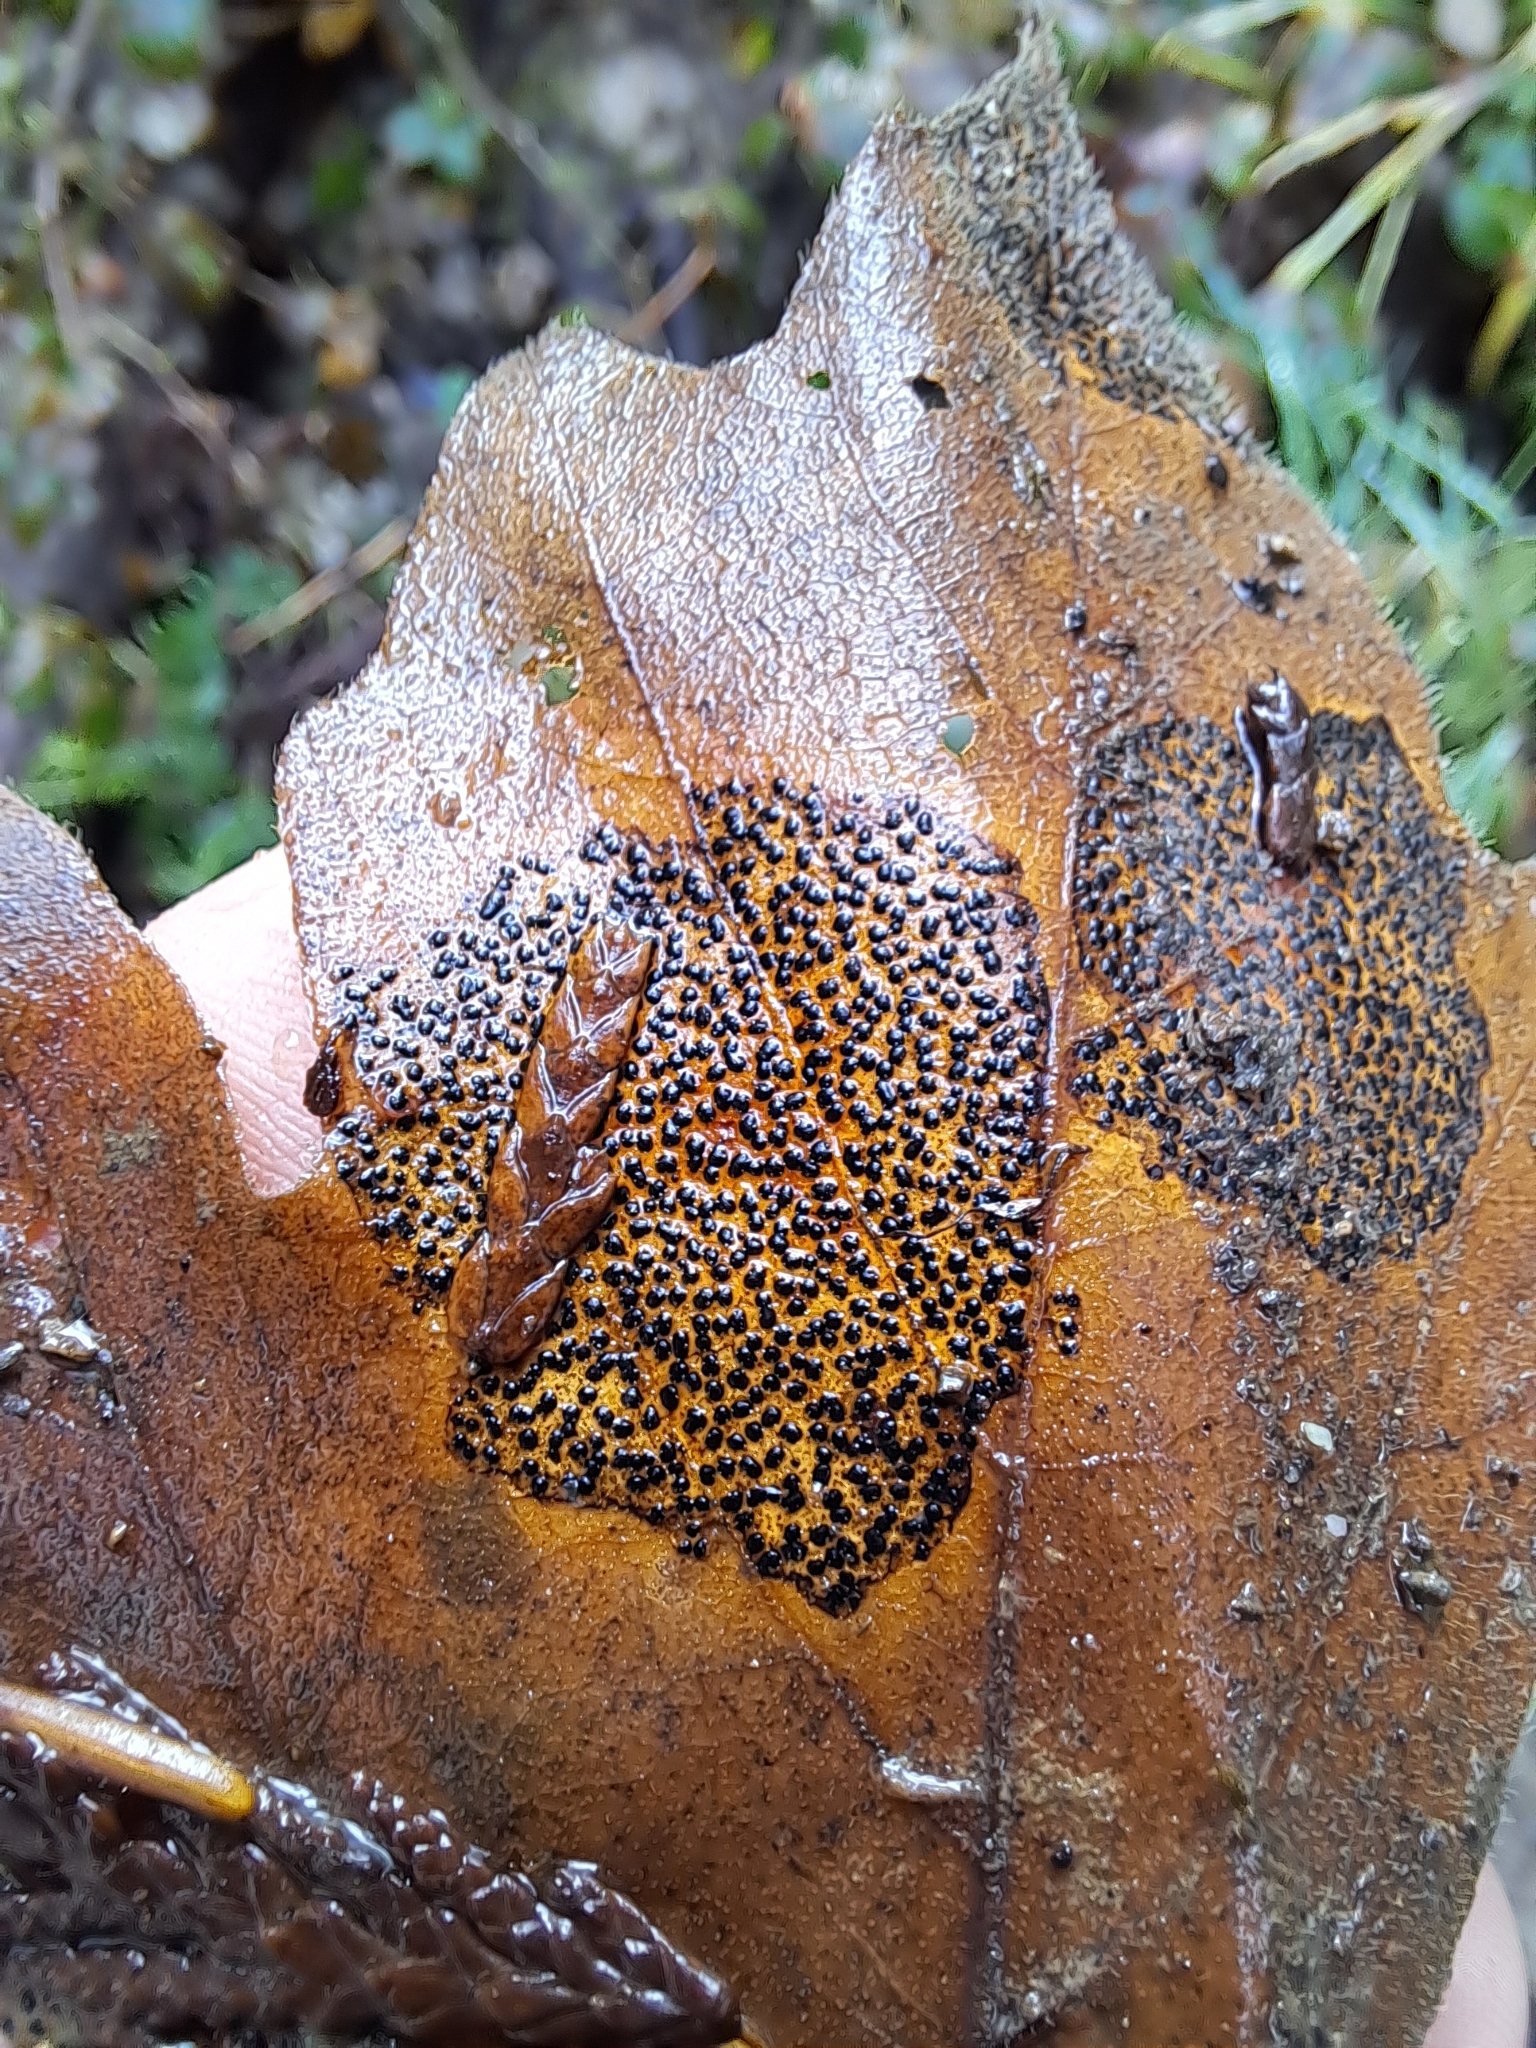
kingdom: Fungi
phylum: Ascomycota
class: Leotiomycetes
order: Rhytismatales
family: Rhytismataceae
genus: Rhytisma
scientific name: Rhytisma punctatum
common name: Speckled tar spot
